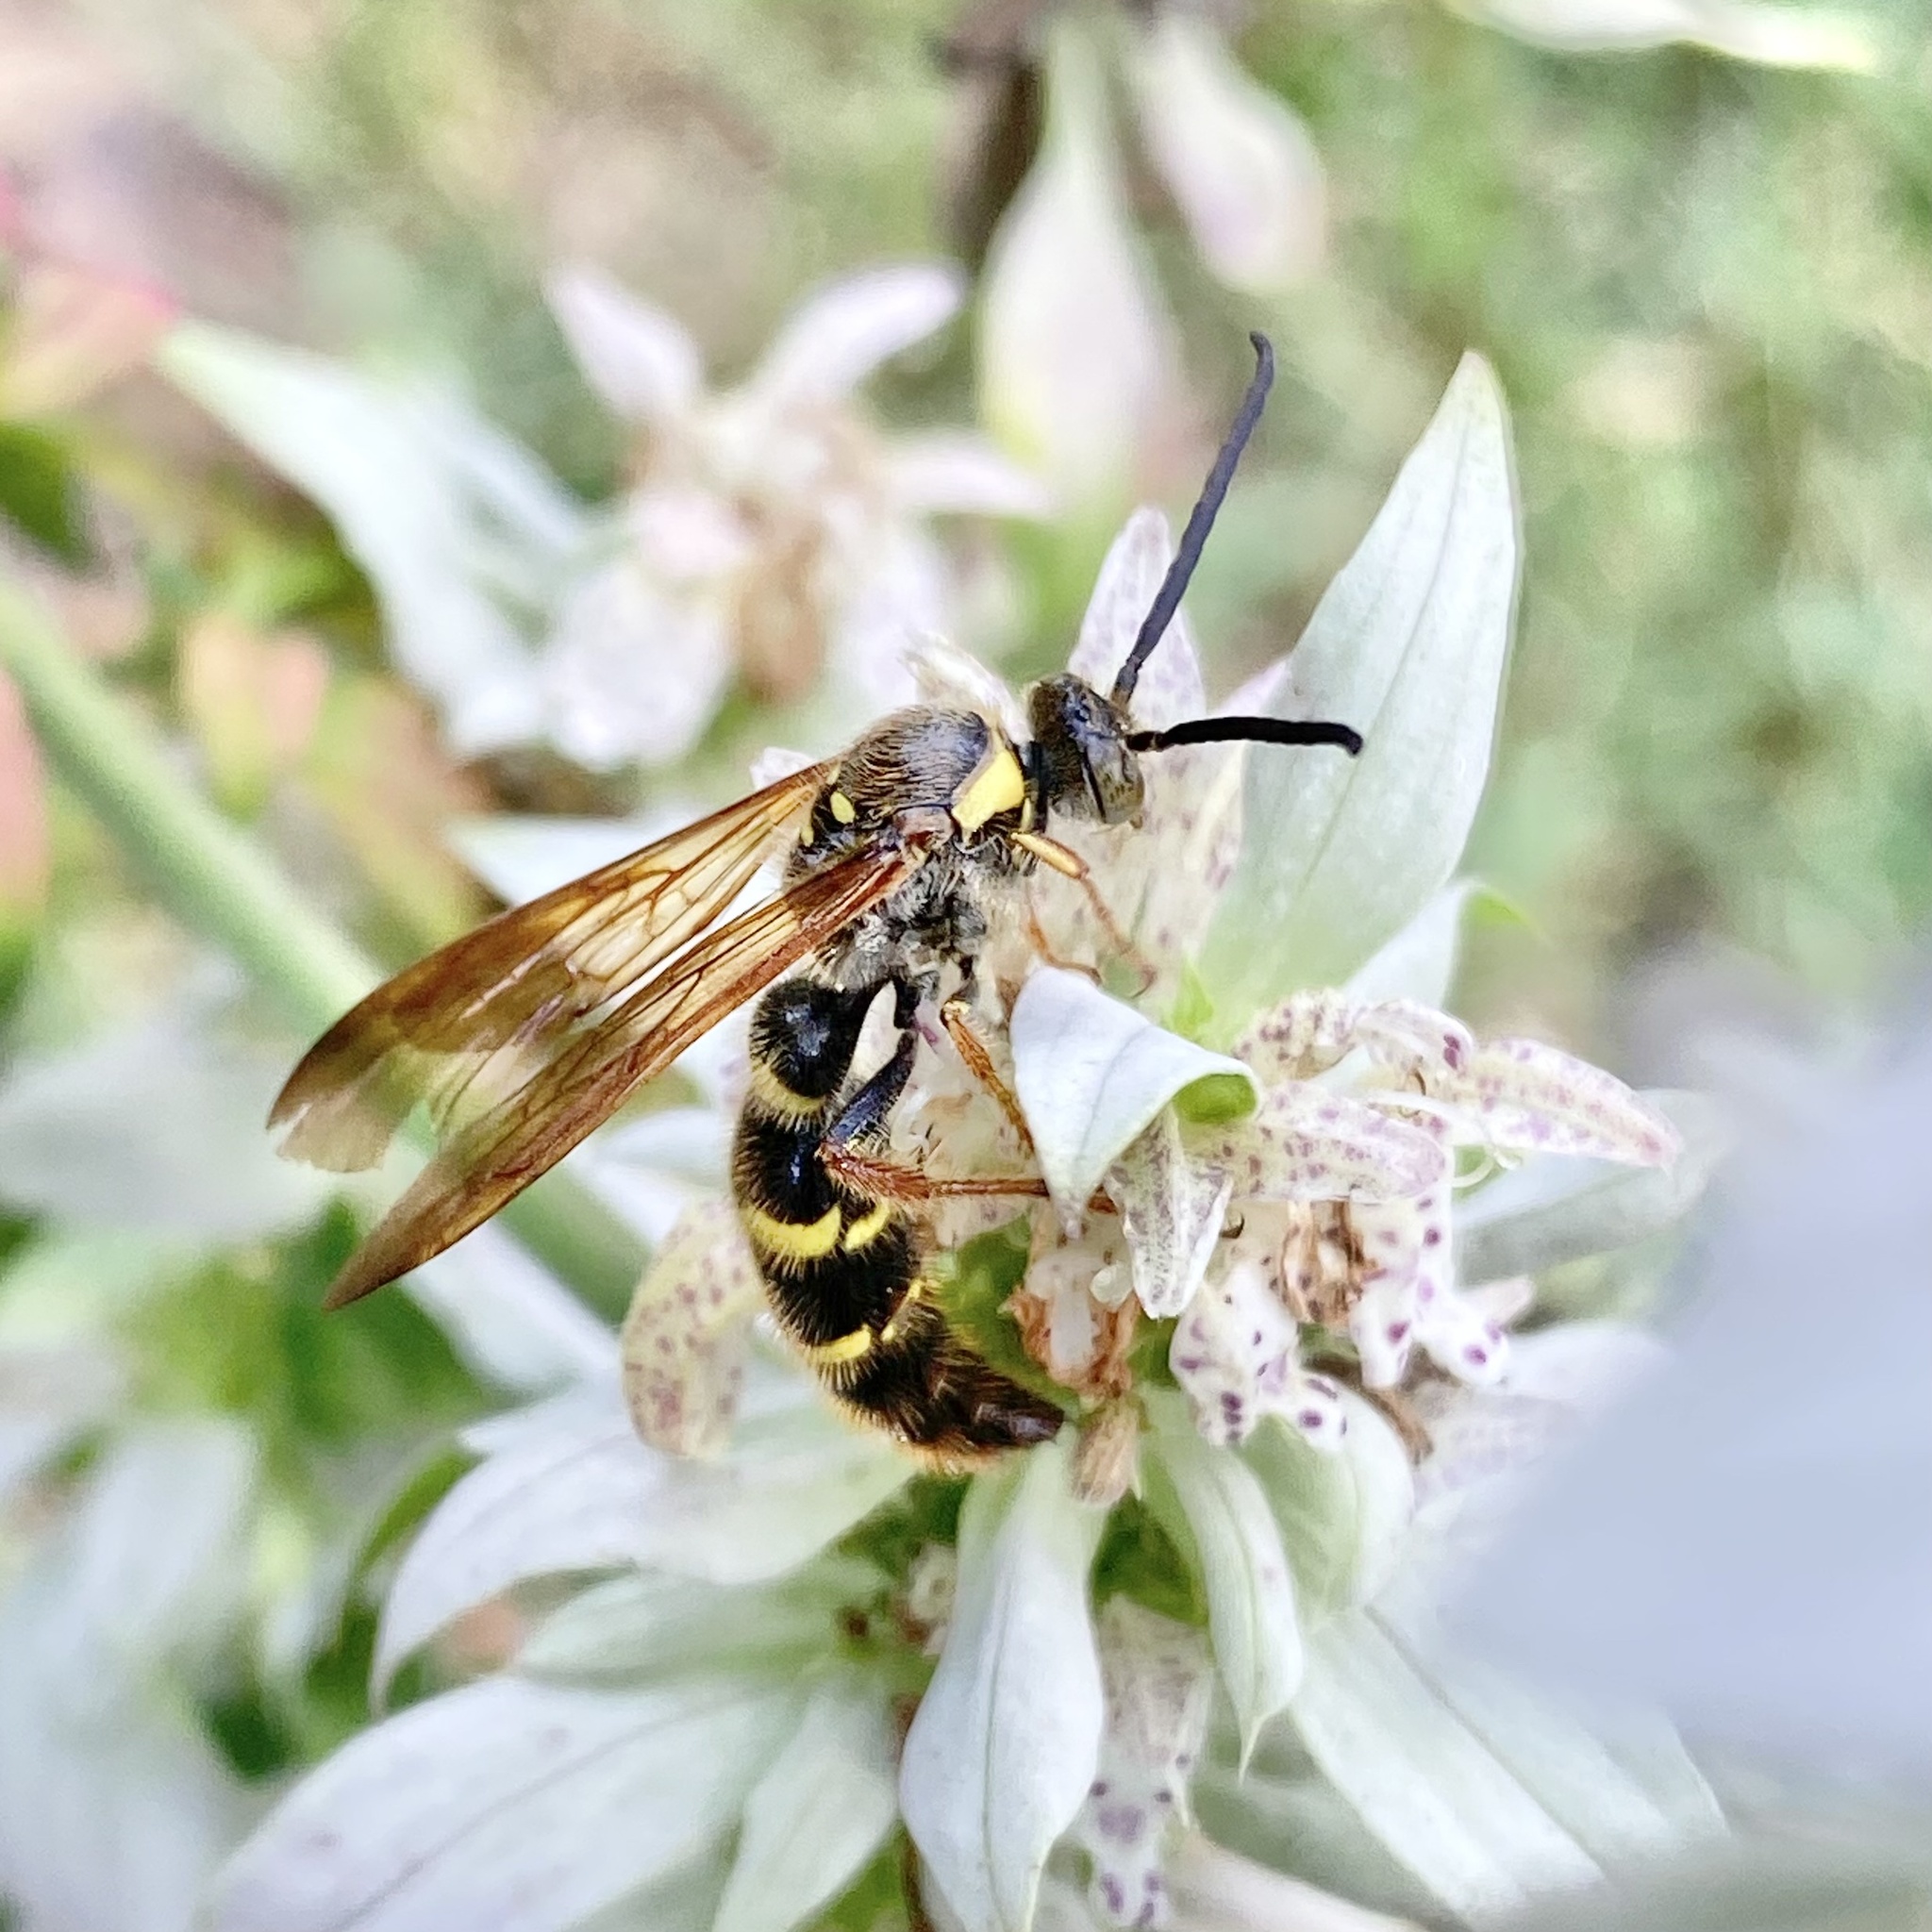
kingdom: Animalia
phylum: Arthropoda
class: Insecta
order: Hymenoptera
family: Scoliidae
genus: Xanthocampsomeris
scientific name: Xanthocampsomeris
